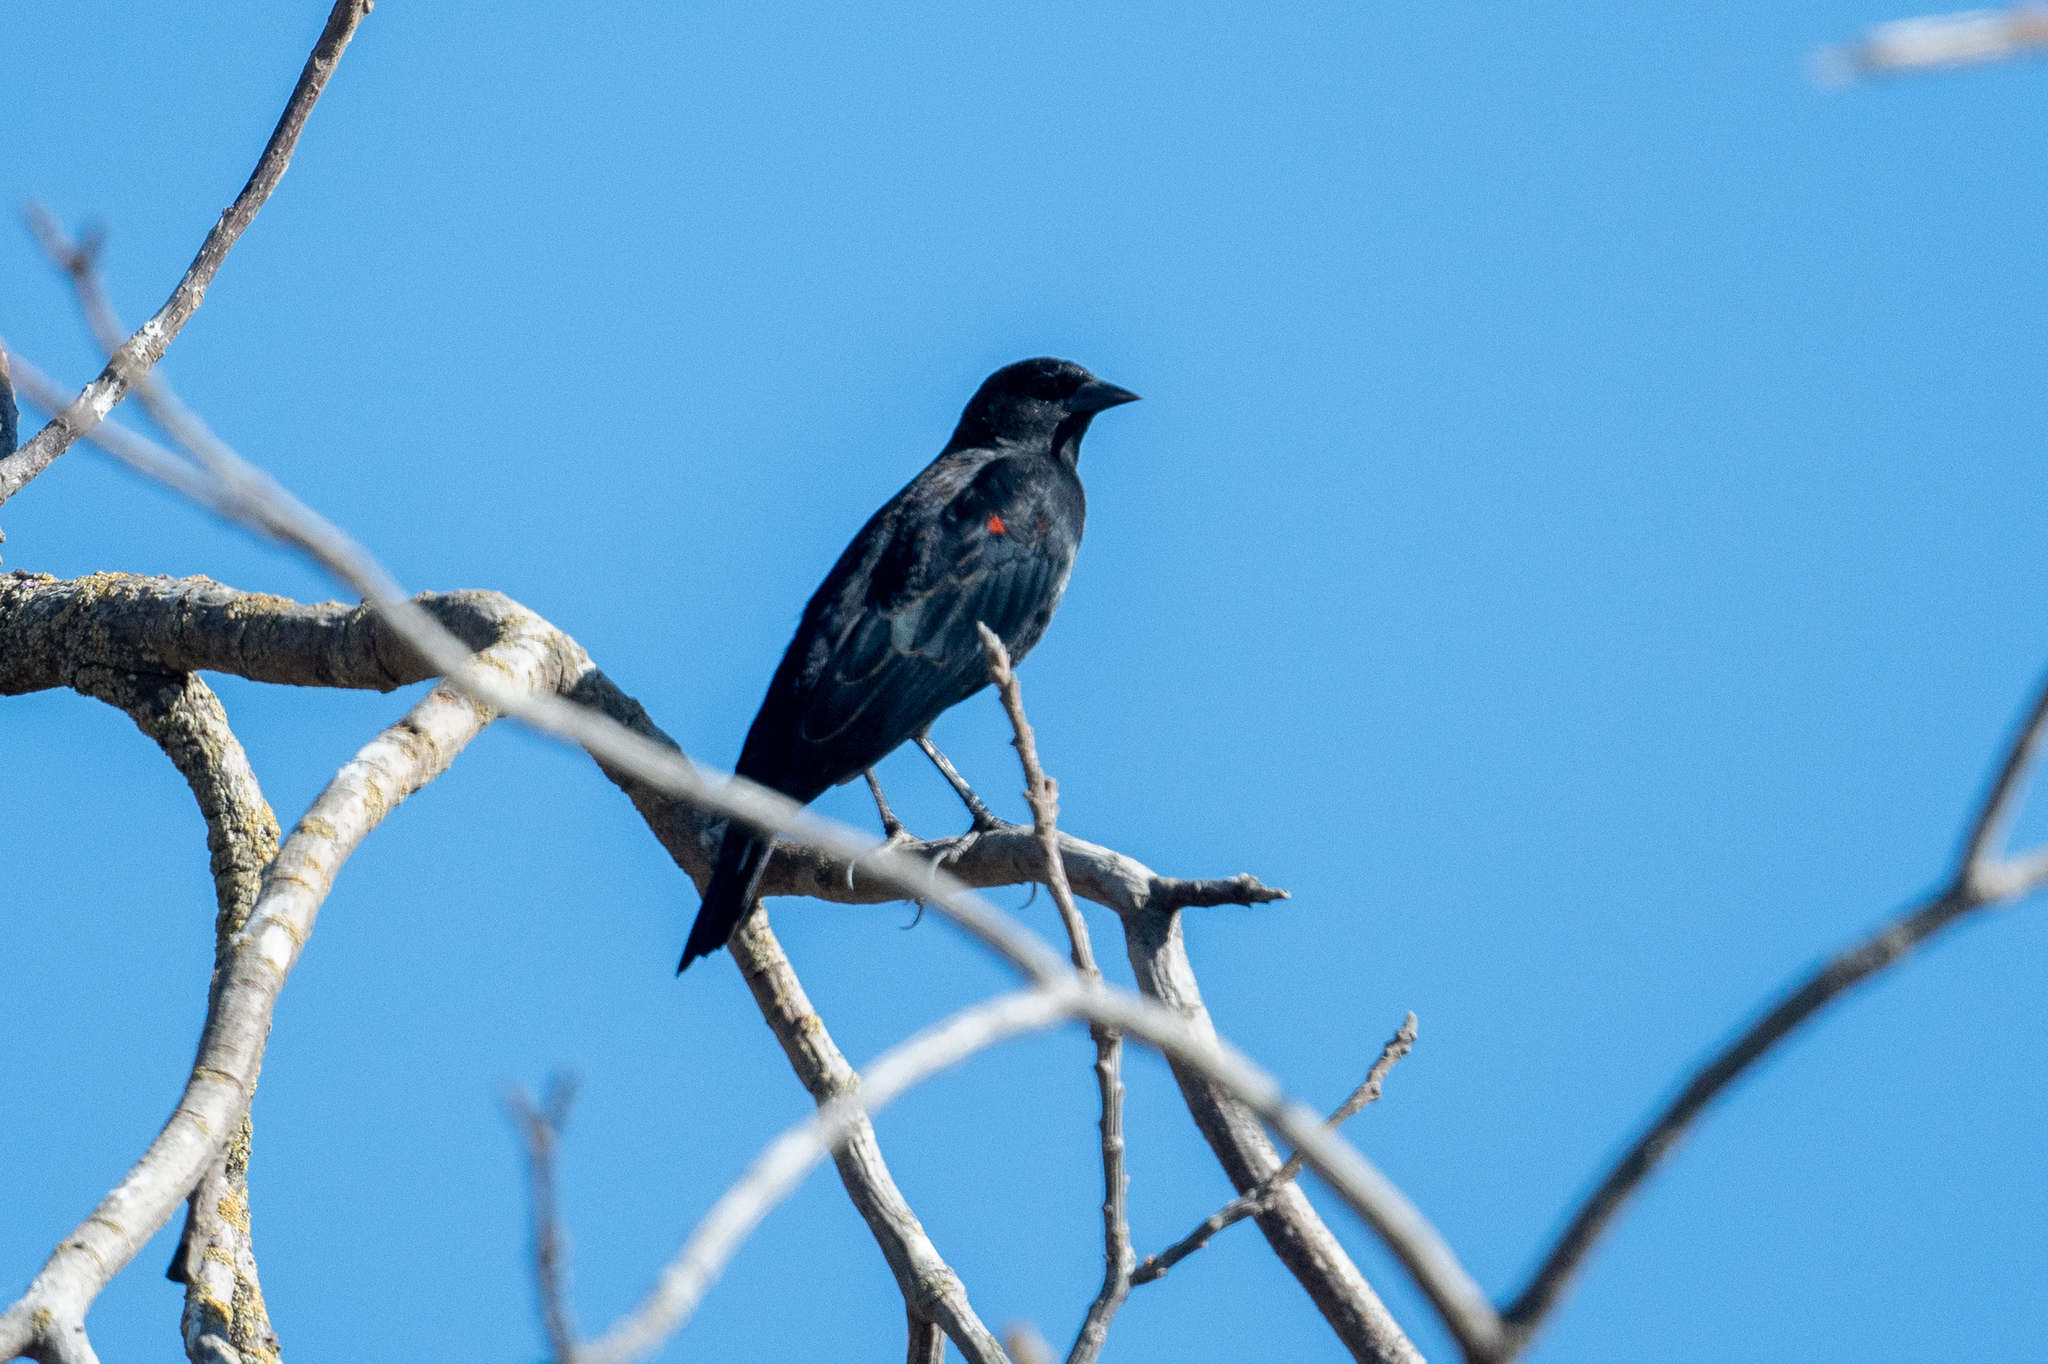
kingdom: Animalia
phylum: Chordata
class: Aves
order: Passeriformes
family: Icteridae
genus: Agelaius
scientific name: Agelaius phoeniceus
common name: Red-winged blackbird
